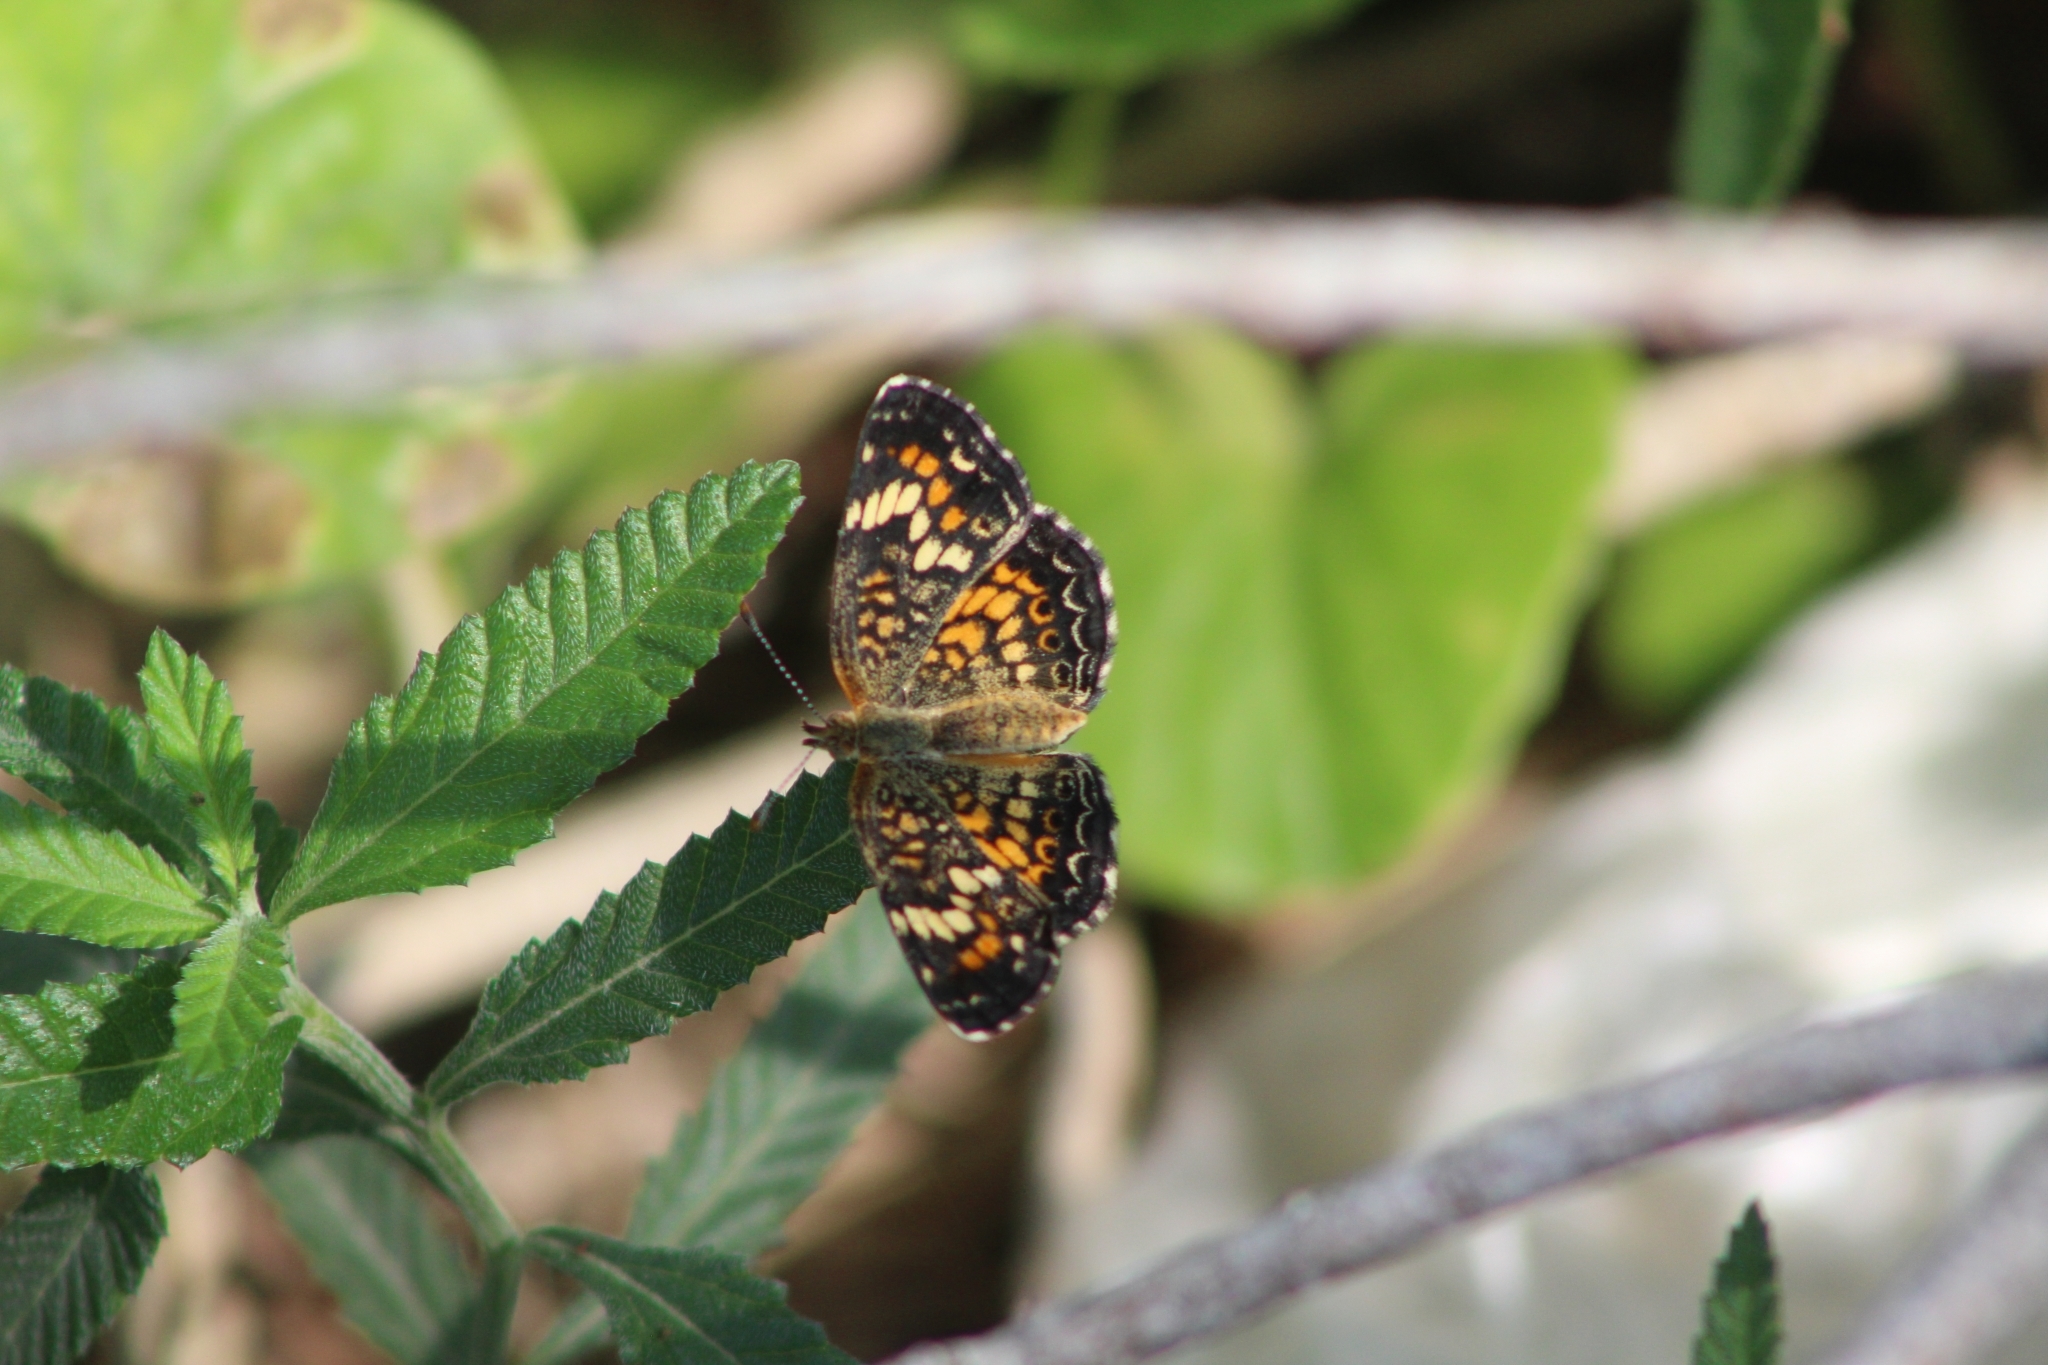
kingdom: Animalia
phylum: Arthropoda
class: Insecta
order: Lepidoptera
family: Nymphalidae
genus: Phyciodes
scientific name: Phyciodes phaon
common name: Phaon crescent
